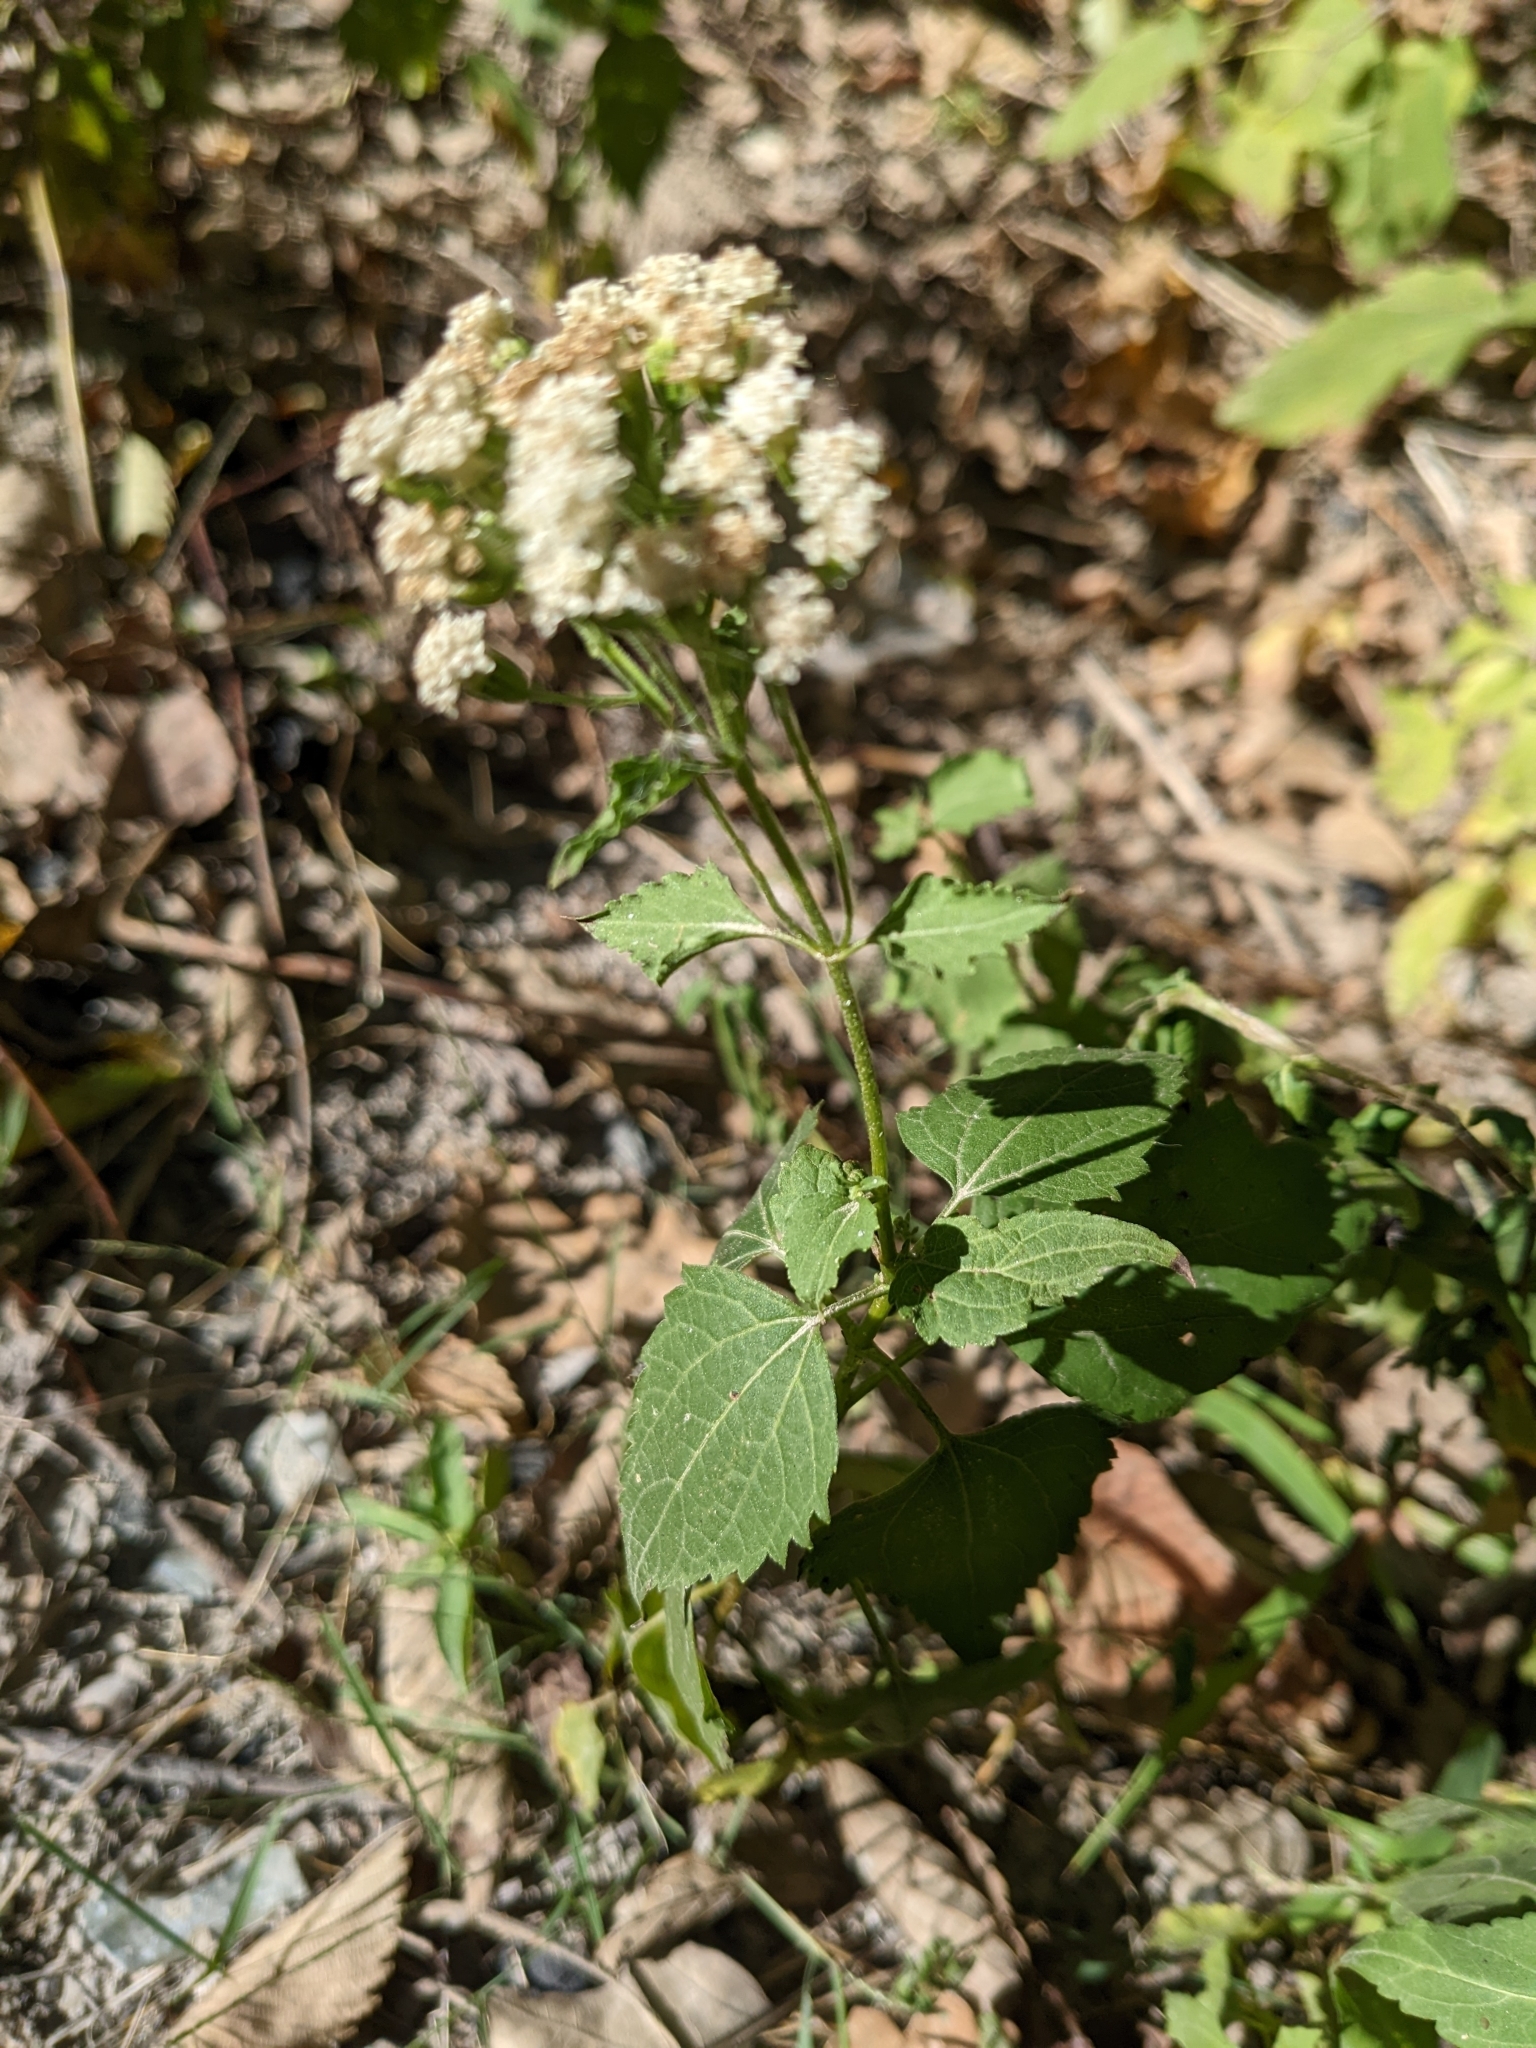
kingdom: Plantae
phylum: Tracheophyta
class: Magnoliopsida
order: Asterales
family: Asteraceae
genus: Ageratina
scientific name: Ageratina altissima
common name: White snakeroot
